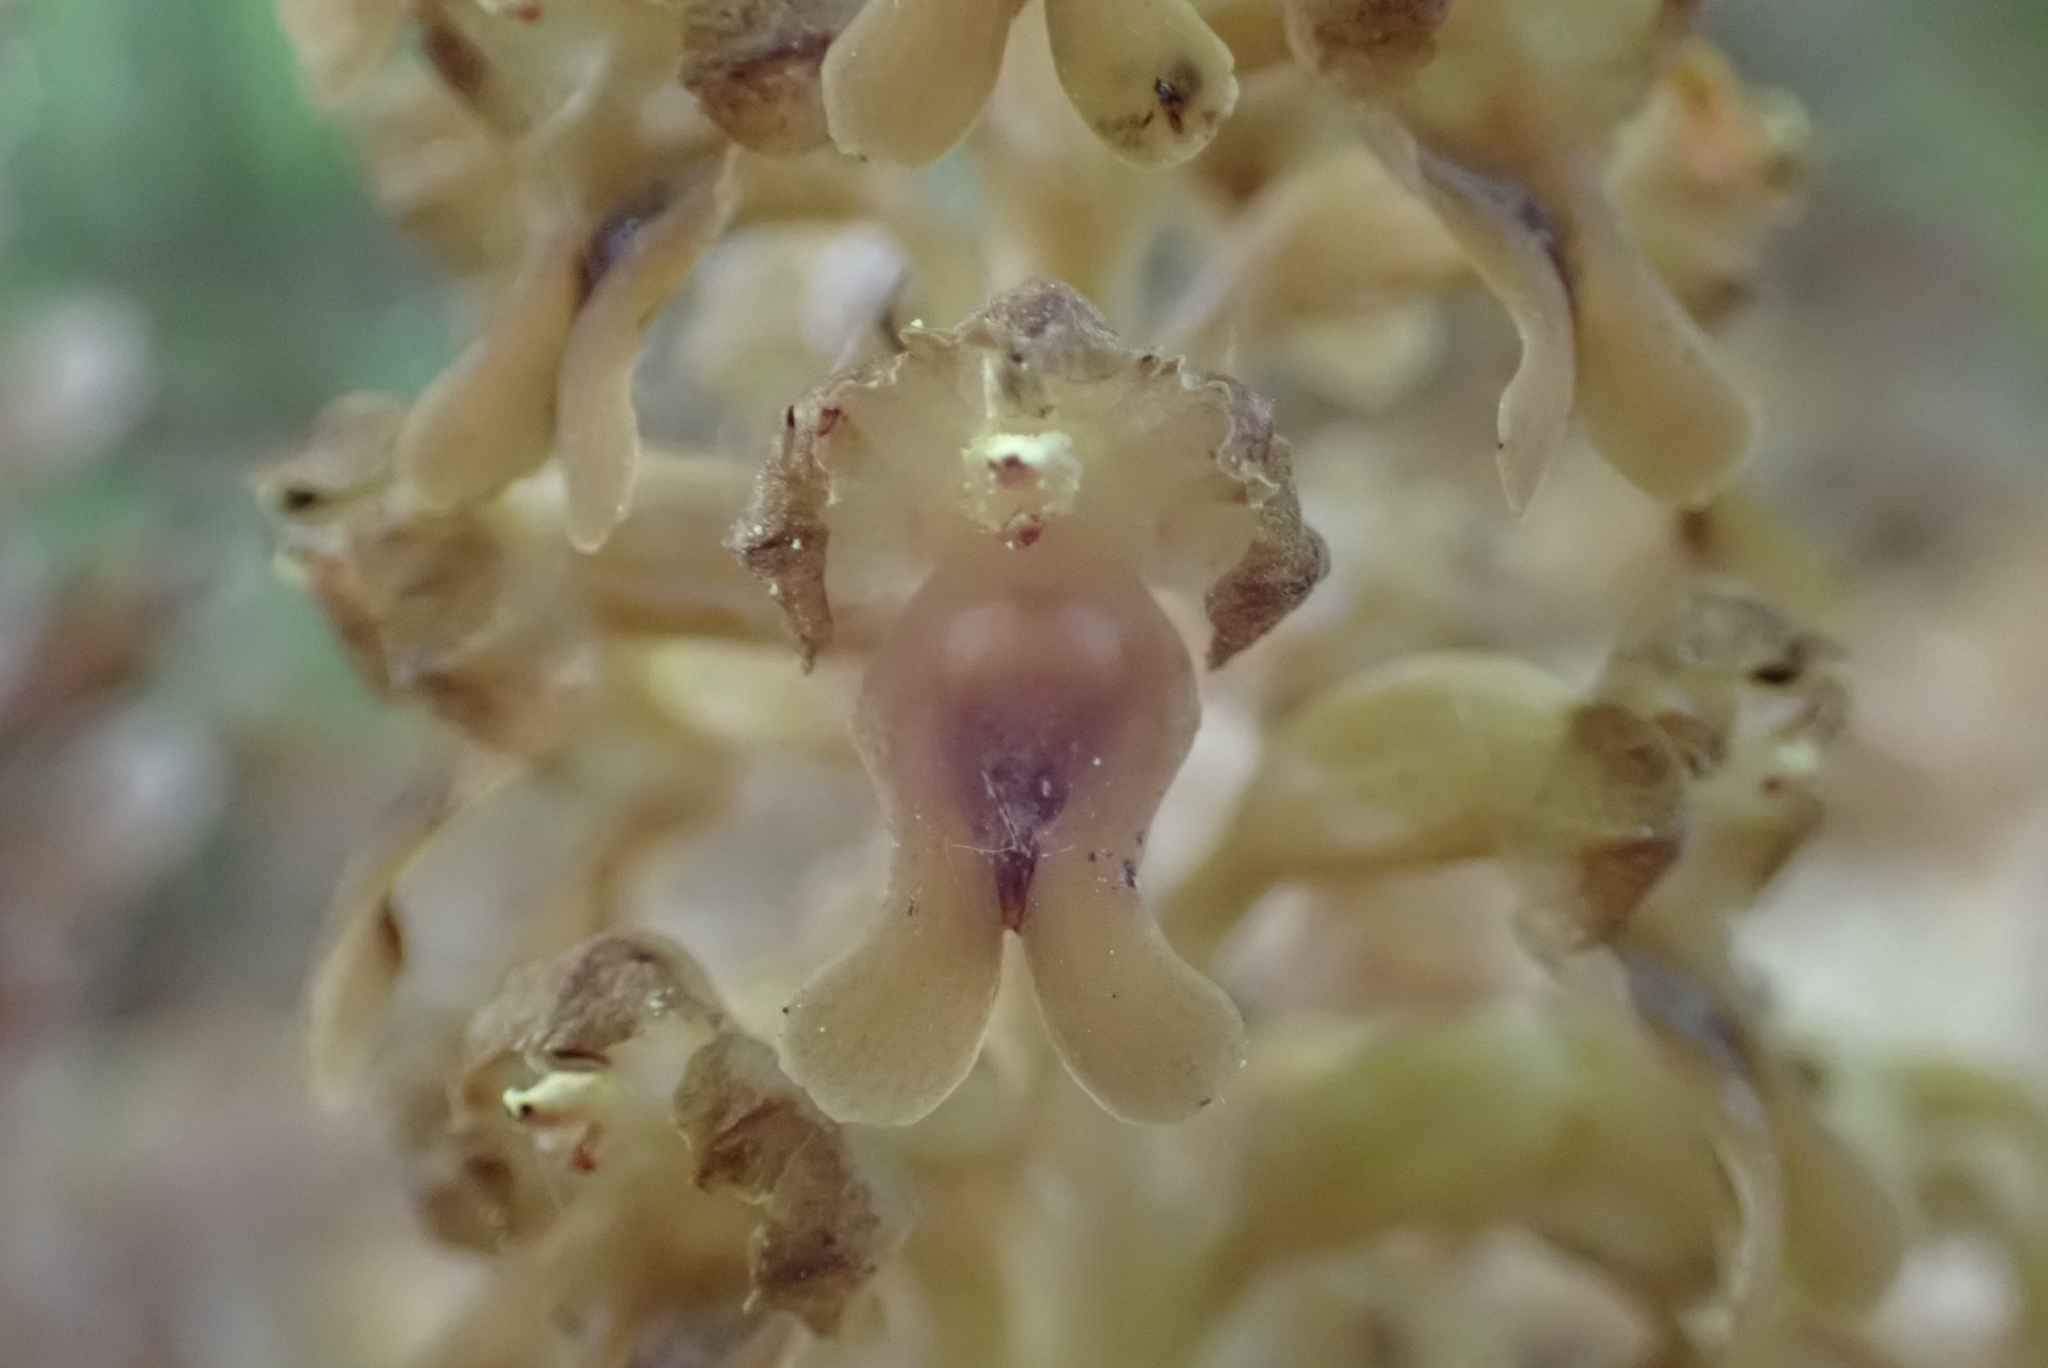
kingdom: Plantae
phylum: Tracheophyta
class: Liliopsida
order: Asparagales
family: Orchidaceae
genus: Neottia
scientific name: Neottia nidus-avis
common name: Bird's-nest orchid
